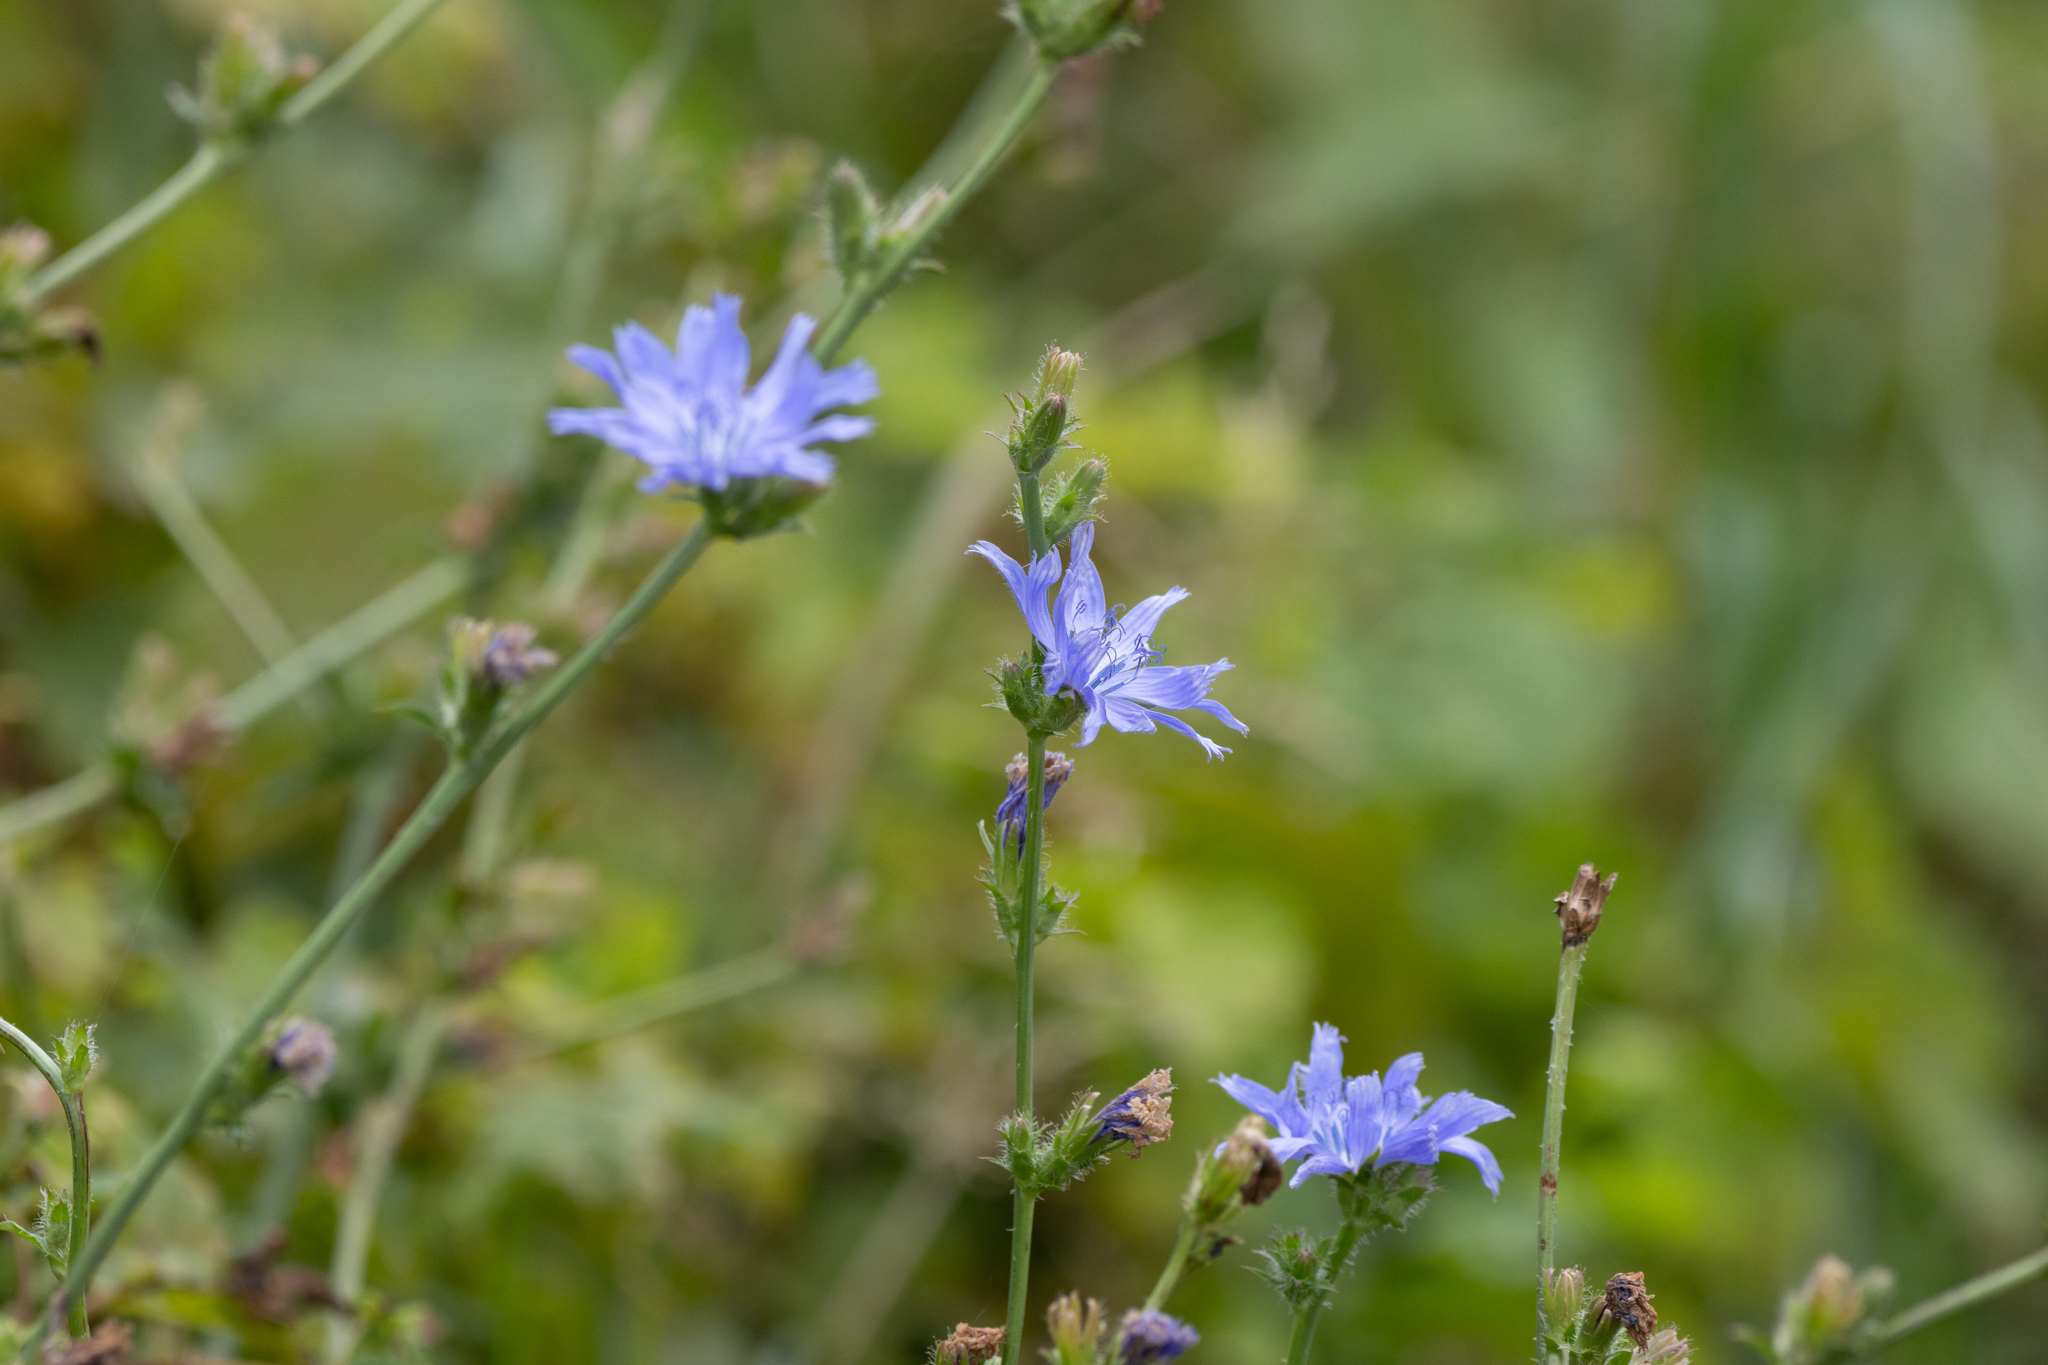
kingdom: Plantae
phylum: Tracheophyta
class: Magnoliopsida
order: Asterales
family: Asteraceae
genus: Cichorium
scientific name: Cichorium intybus
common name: Chicory
